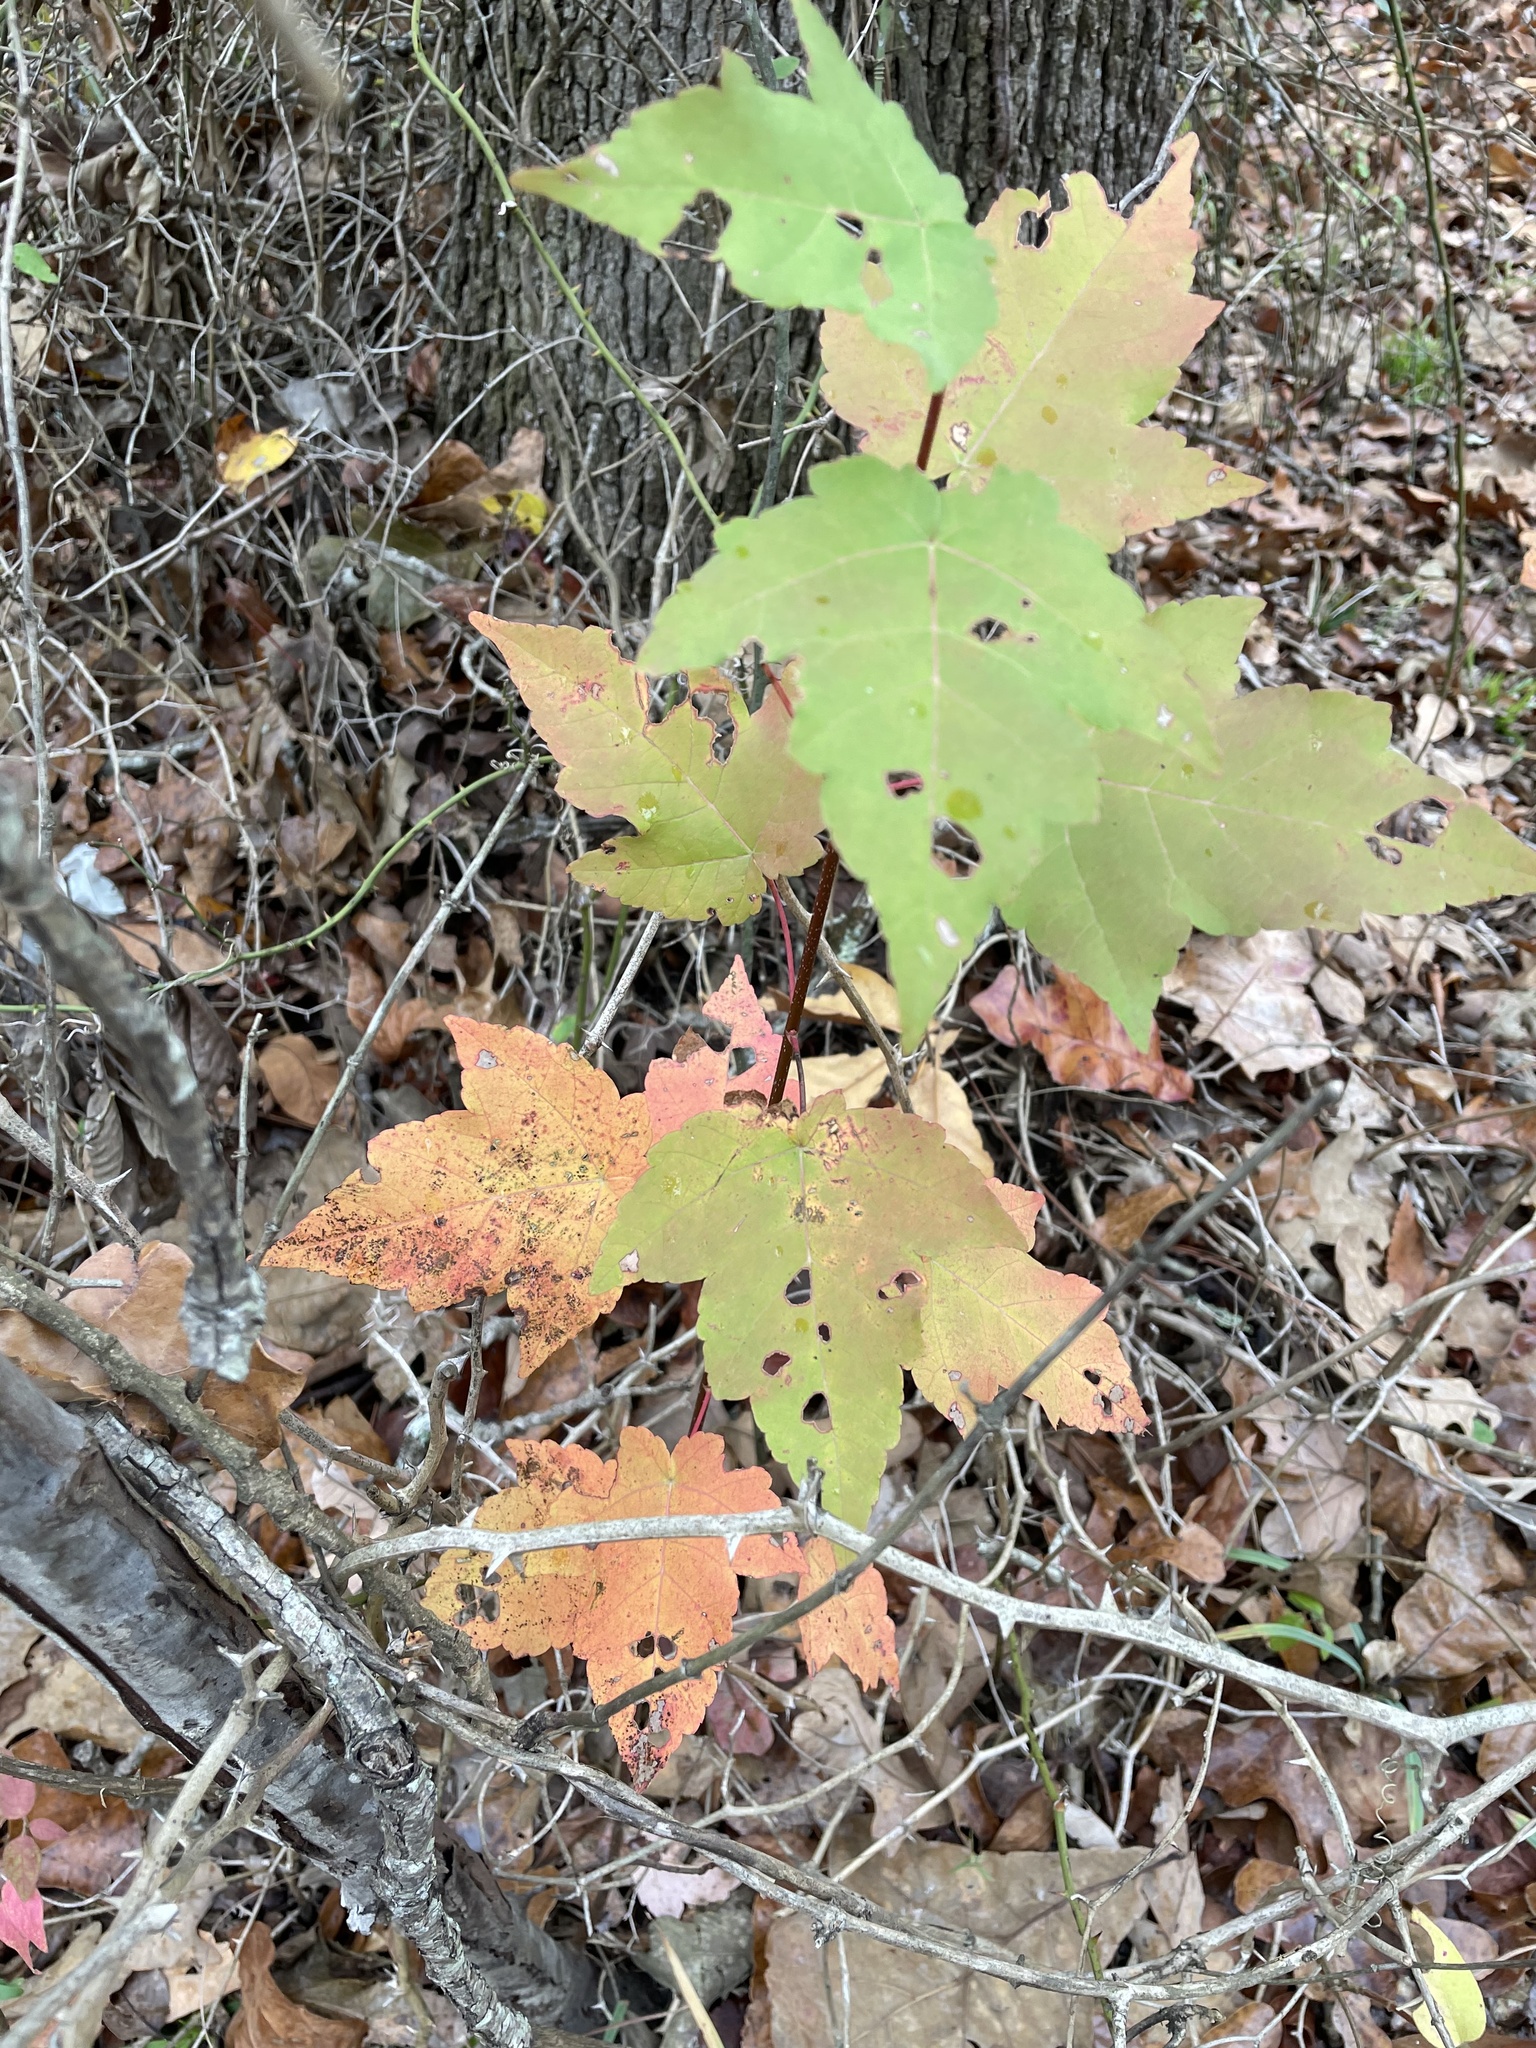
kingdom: Plantae
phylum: Tracheophyta
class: Magnoliopsida
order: Sapindales
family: Sapindaceae
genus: Acer
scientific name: Acer rubrum
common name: Red maple
